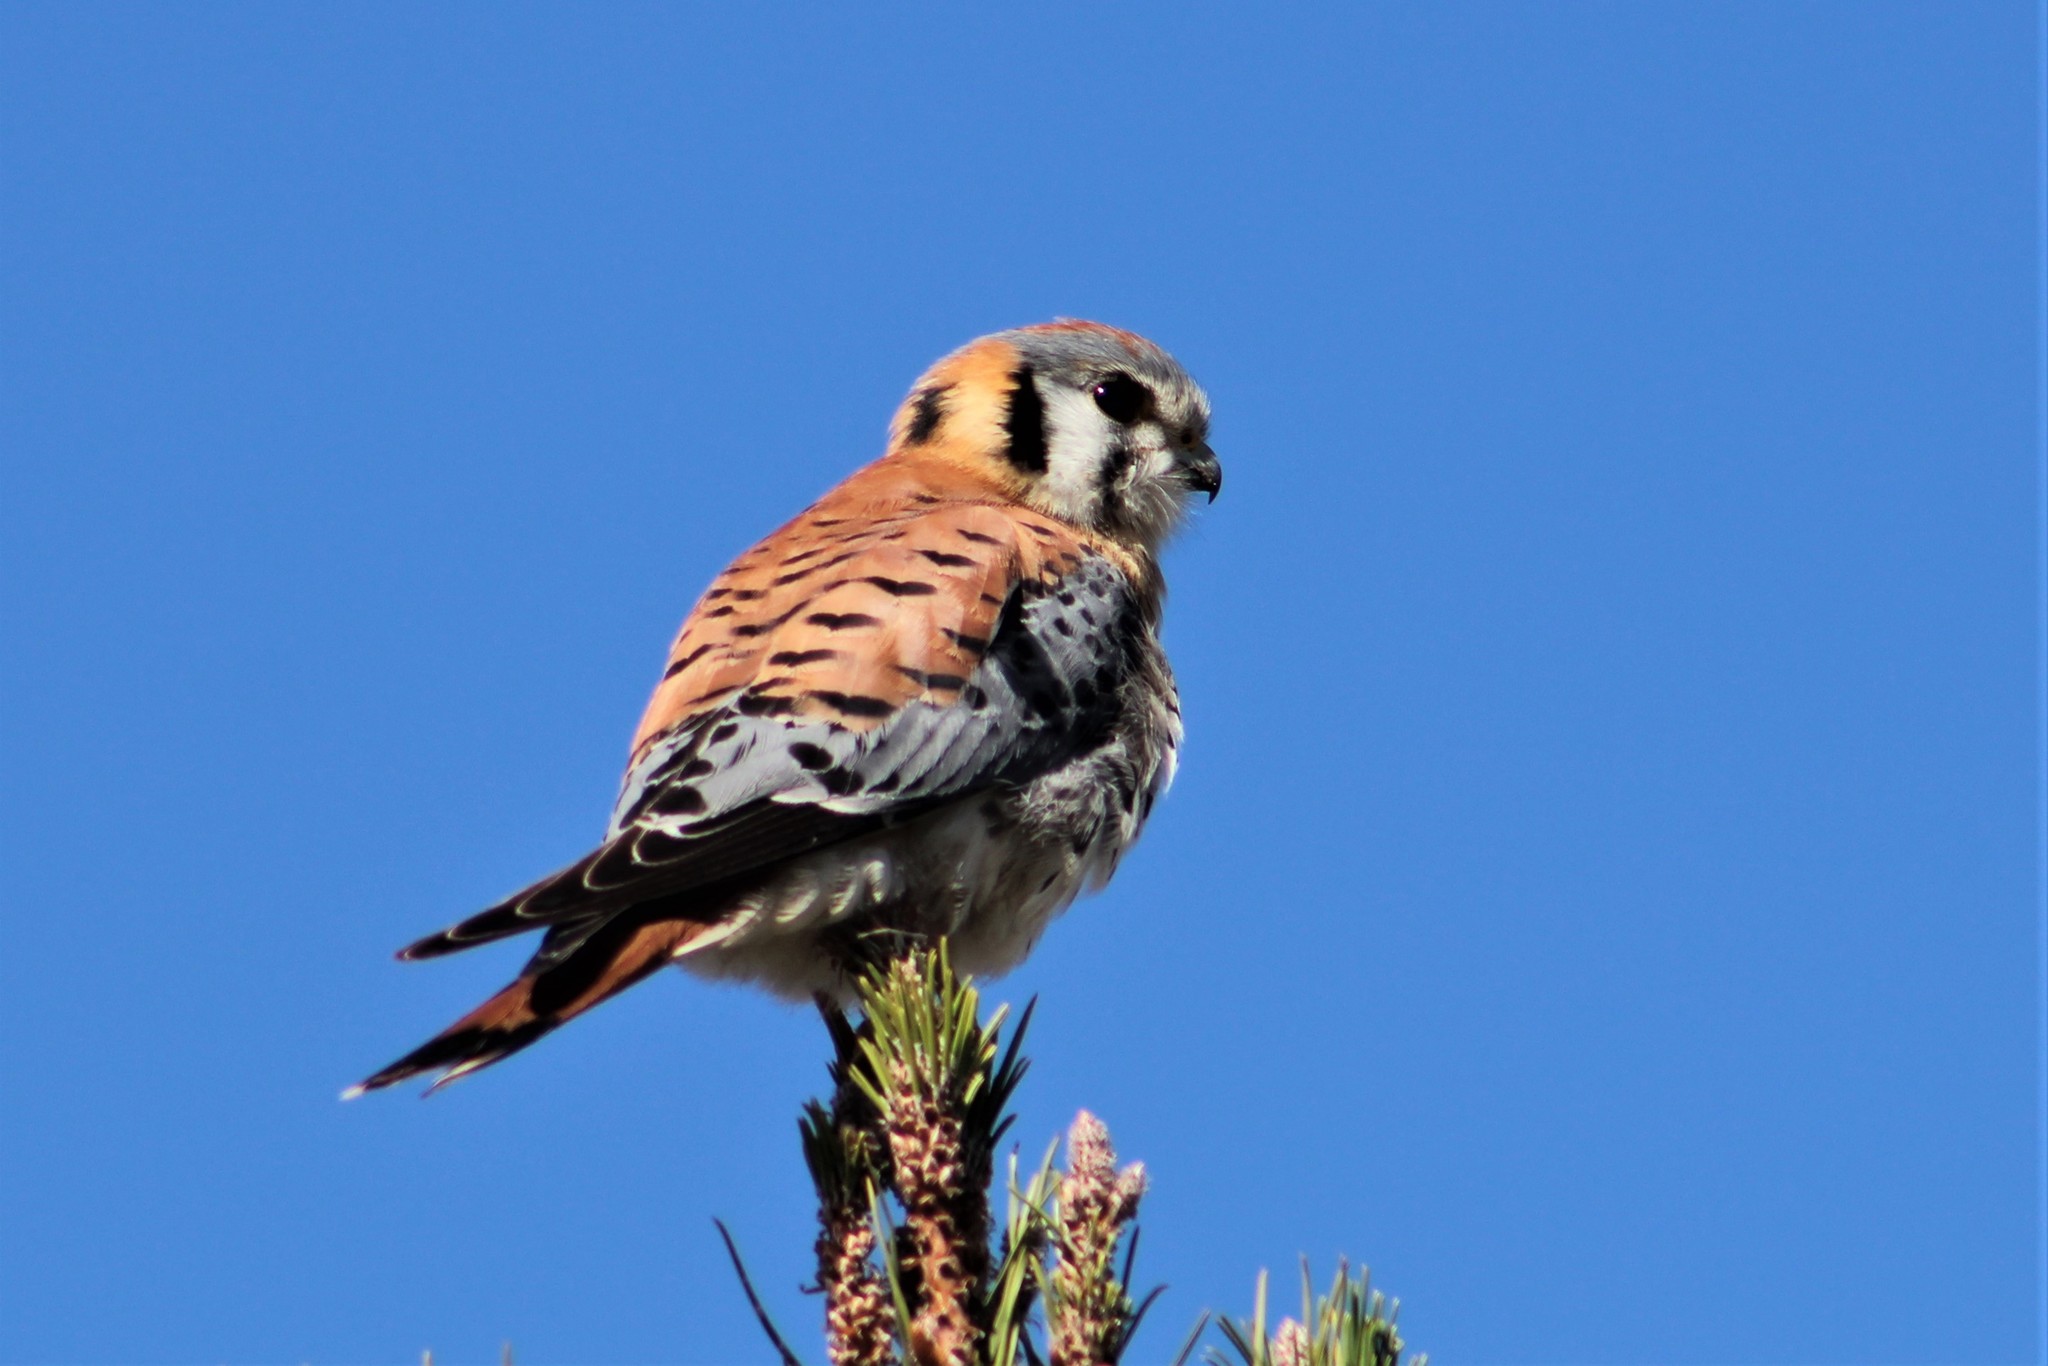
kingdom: Animalia
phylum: Chordata
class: Aves
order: Falconiformes
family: Falconidae
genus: Falco
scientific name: Falco sparverius
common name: American kestrel
